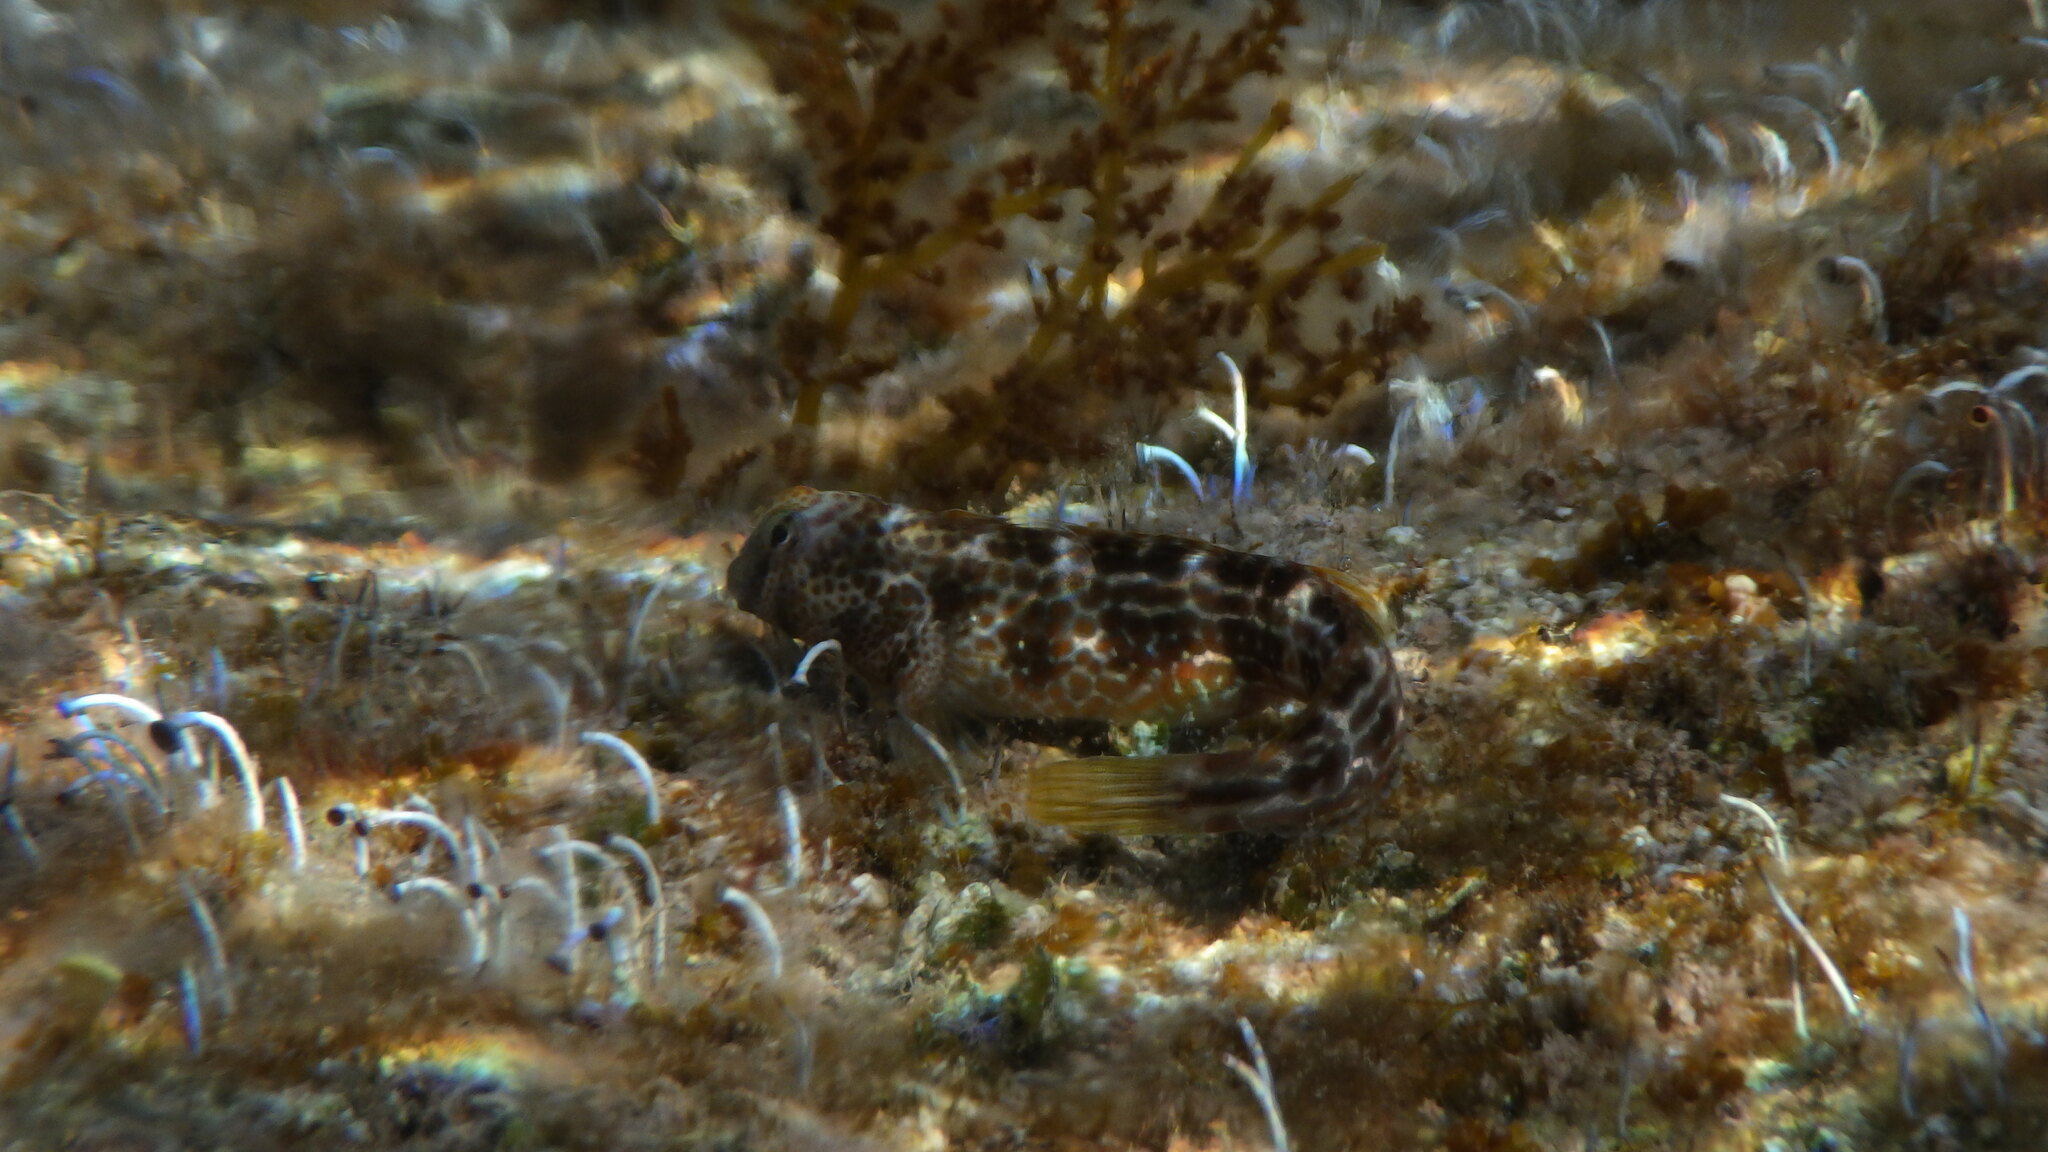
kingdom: Animalia
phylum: Chordata
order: Perciformes
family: Blenniidae
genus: Microlipophrys
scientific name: Microlipophrys canevae
